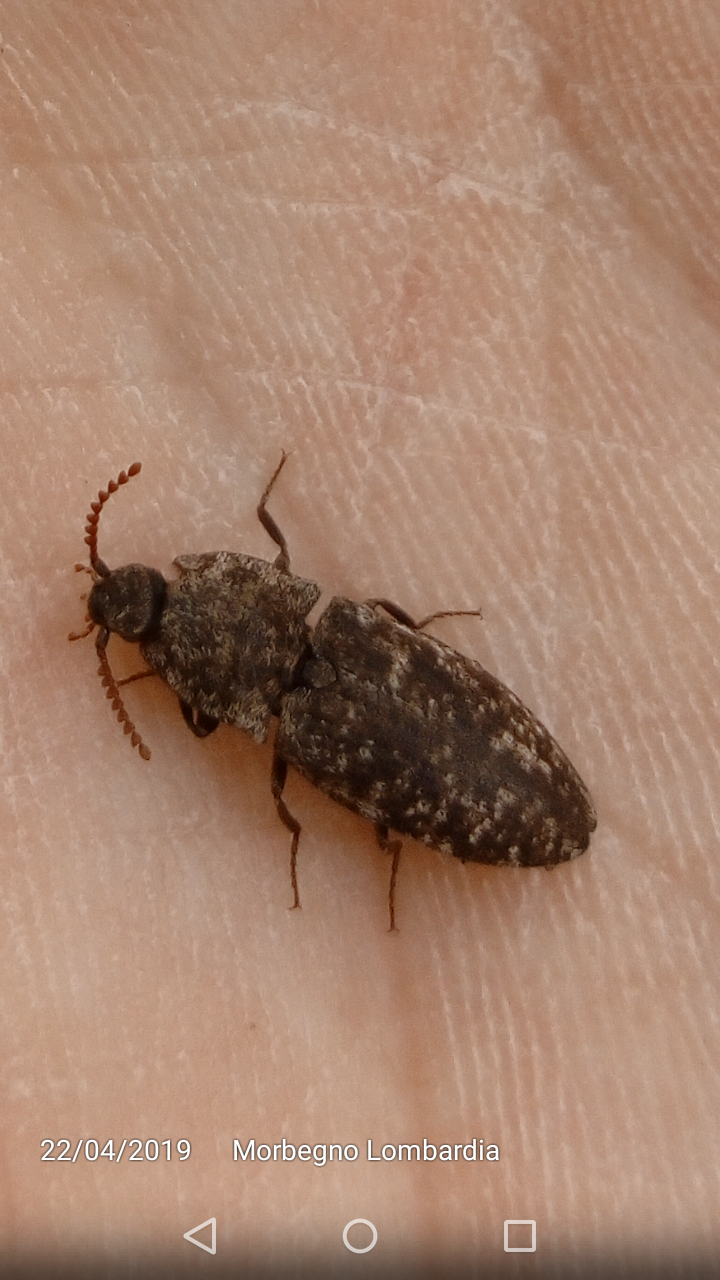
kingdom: Animalia
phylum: Arthropoda
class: Insecta
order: Coleoptera
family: Elateridae
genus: Agrypnus
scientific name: Agrypnus murinus
